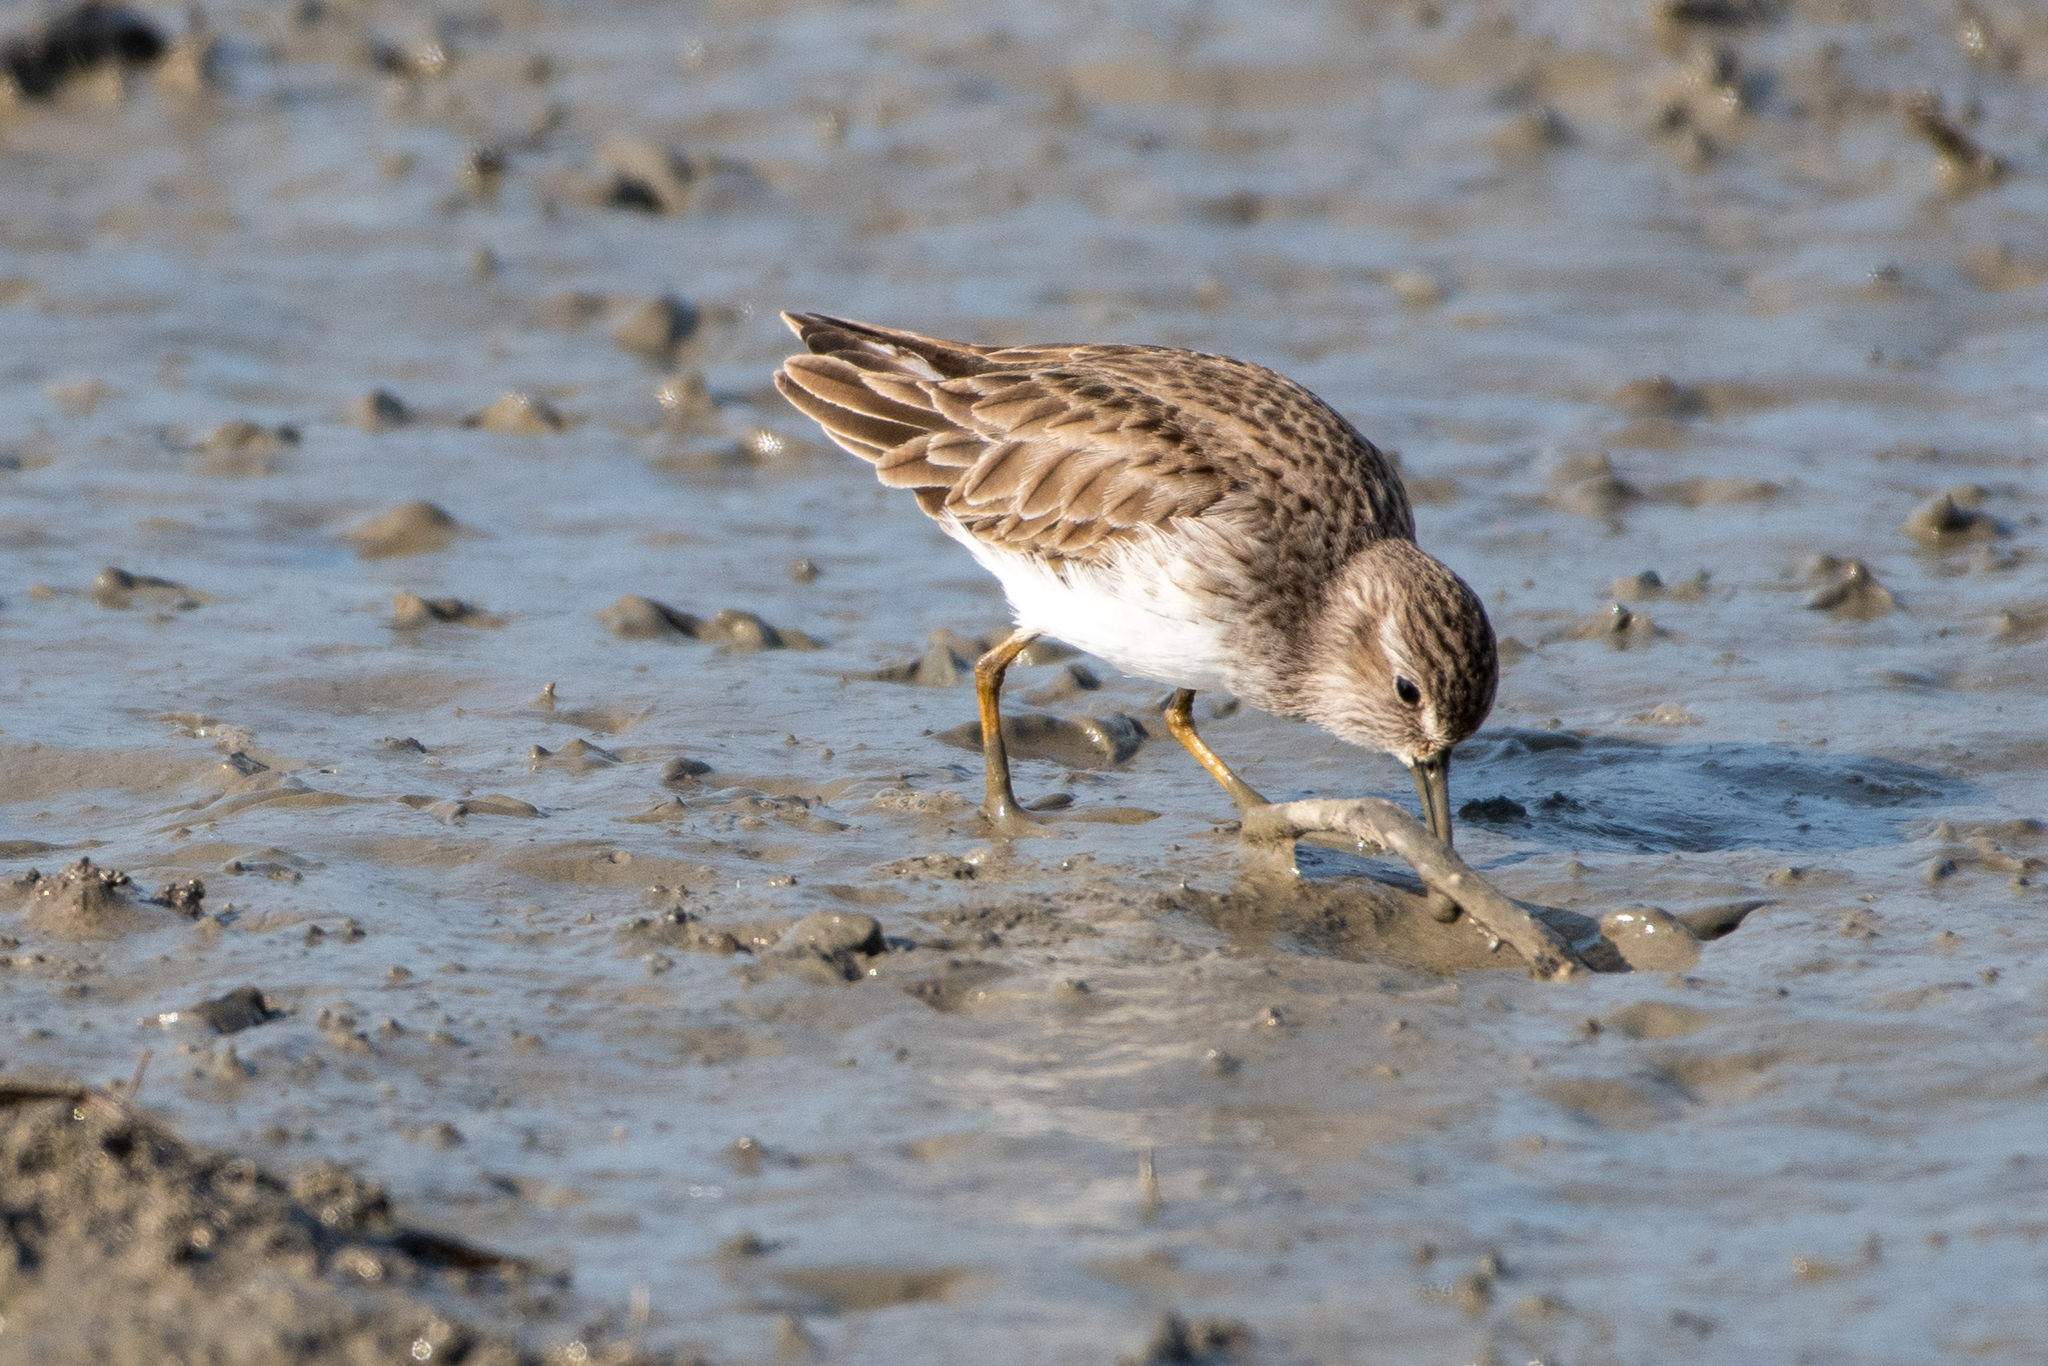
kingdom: Animalia
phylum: Chordata
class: Aves
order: Charadriiformes
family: Scolopacidae
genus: Calidris
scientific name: Calidris minutilla
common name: Least sandpiper
